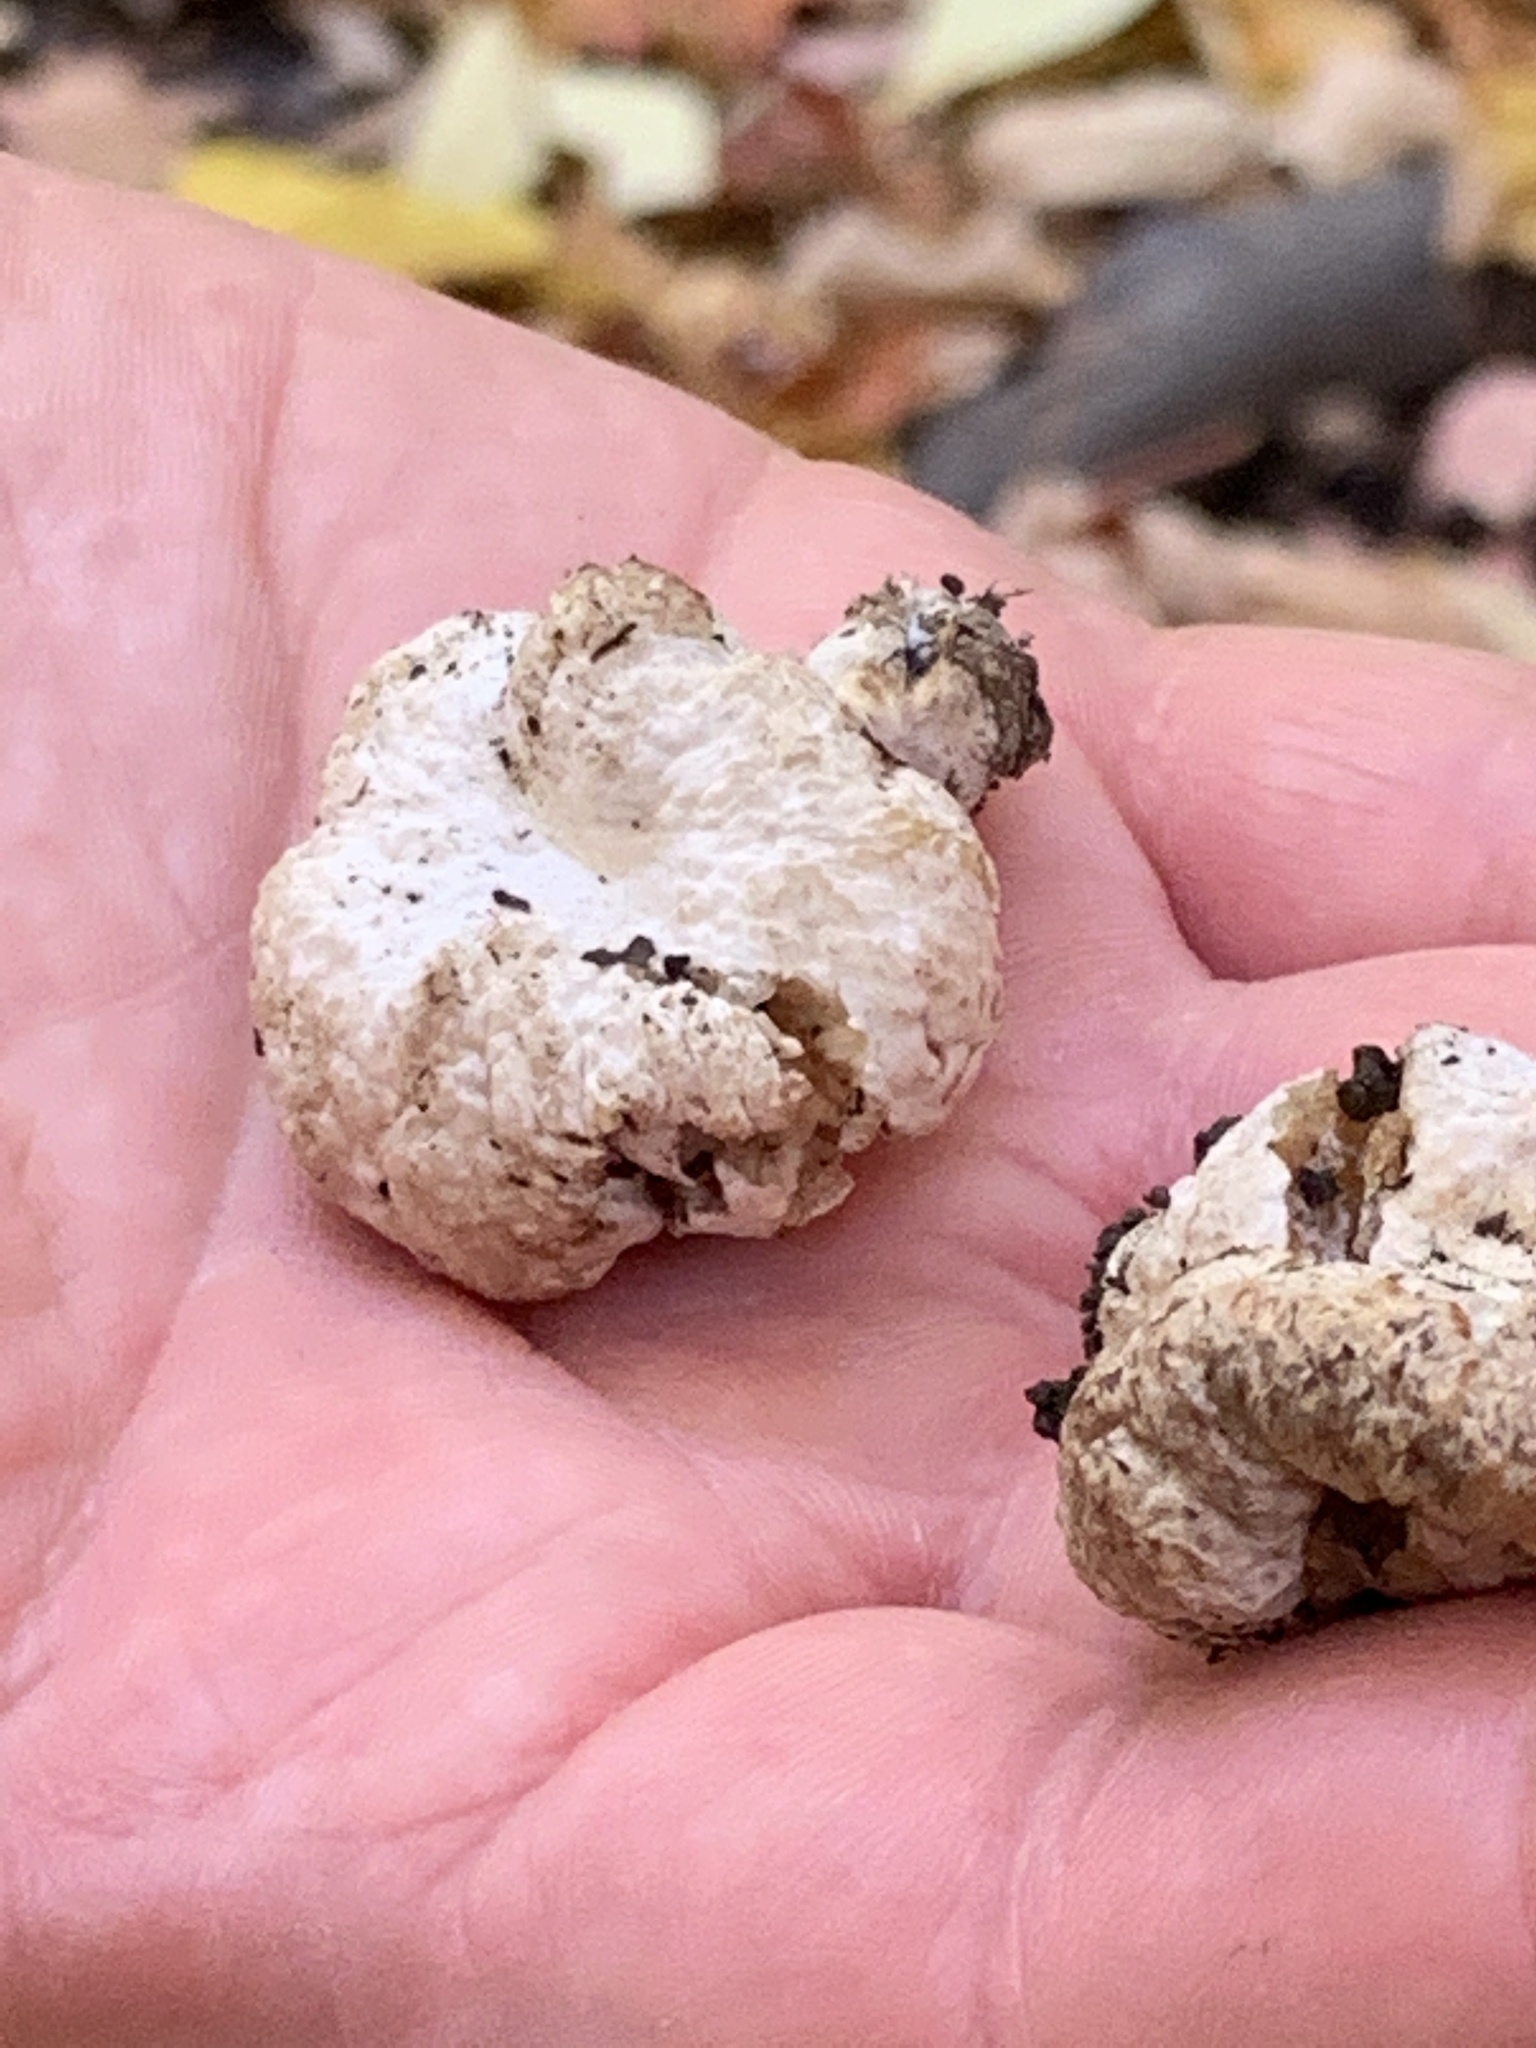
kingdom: Fungi
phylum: Basidiomycota
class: Agaricomycetes
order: Agaricales
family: Entolomataceae
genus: Entoloma
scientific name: Entoloma abortivum
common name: Aborted entoloma
